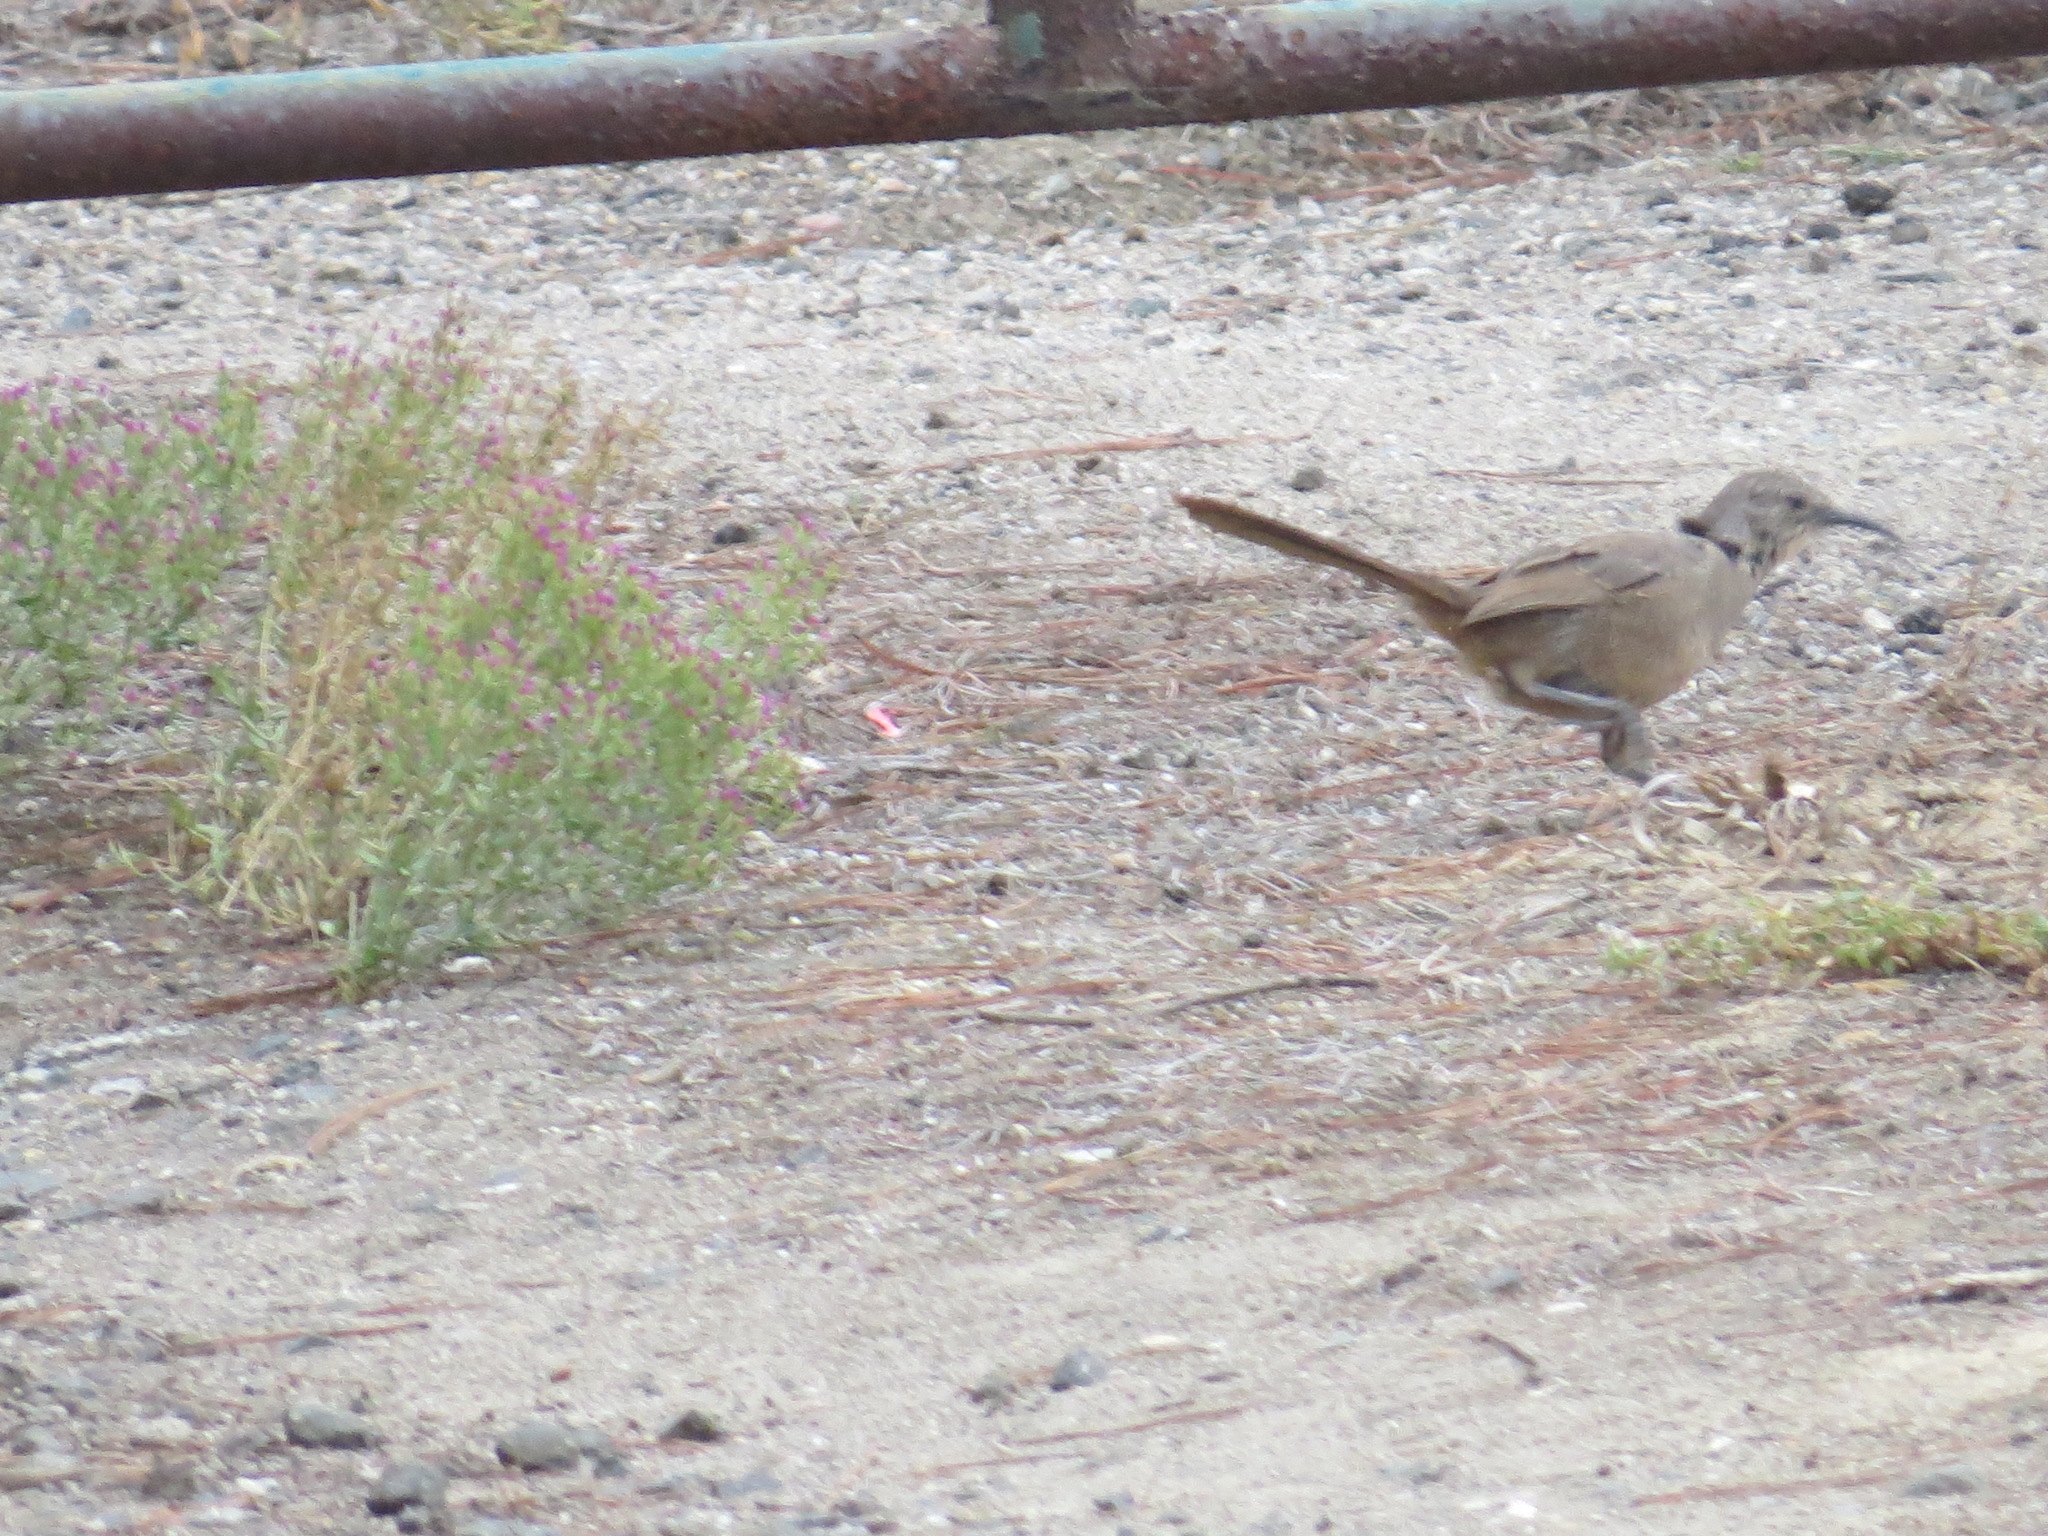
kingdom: Animalia
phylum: Chordata
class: Aves
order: Passeriformes
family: Mimidae
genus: Toxostoma
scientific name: Toxostoma redivivum
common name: California thrasher
